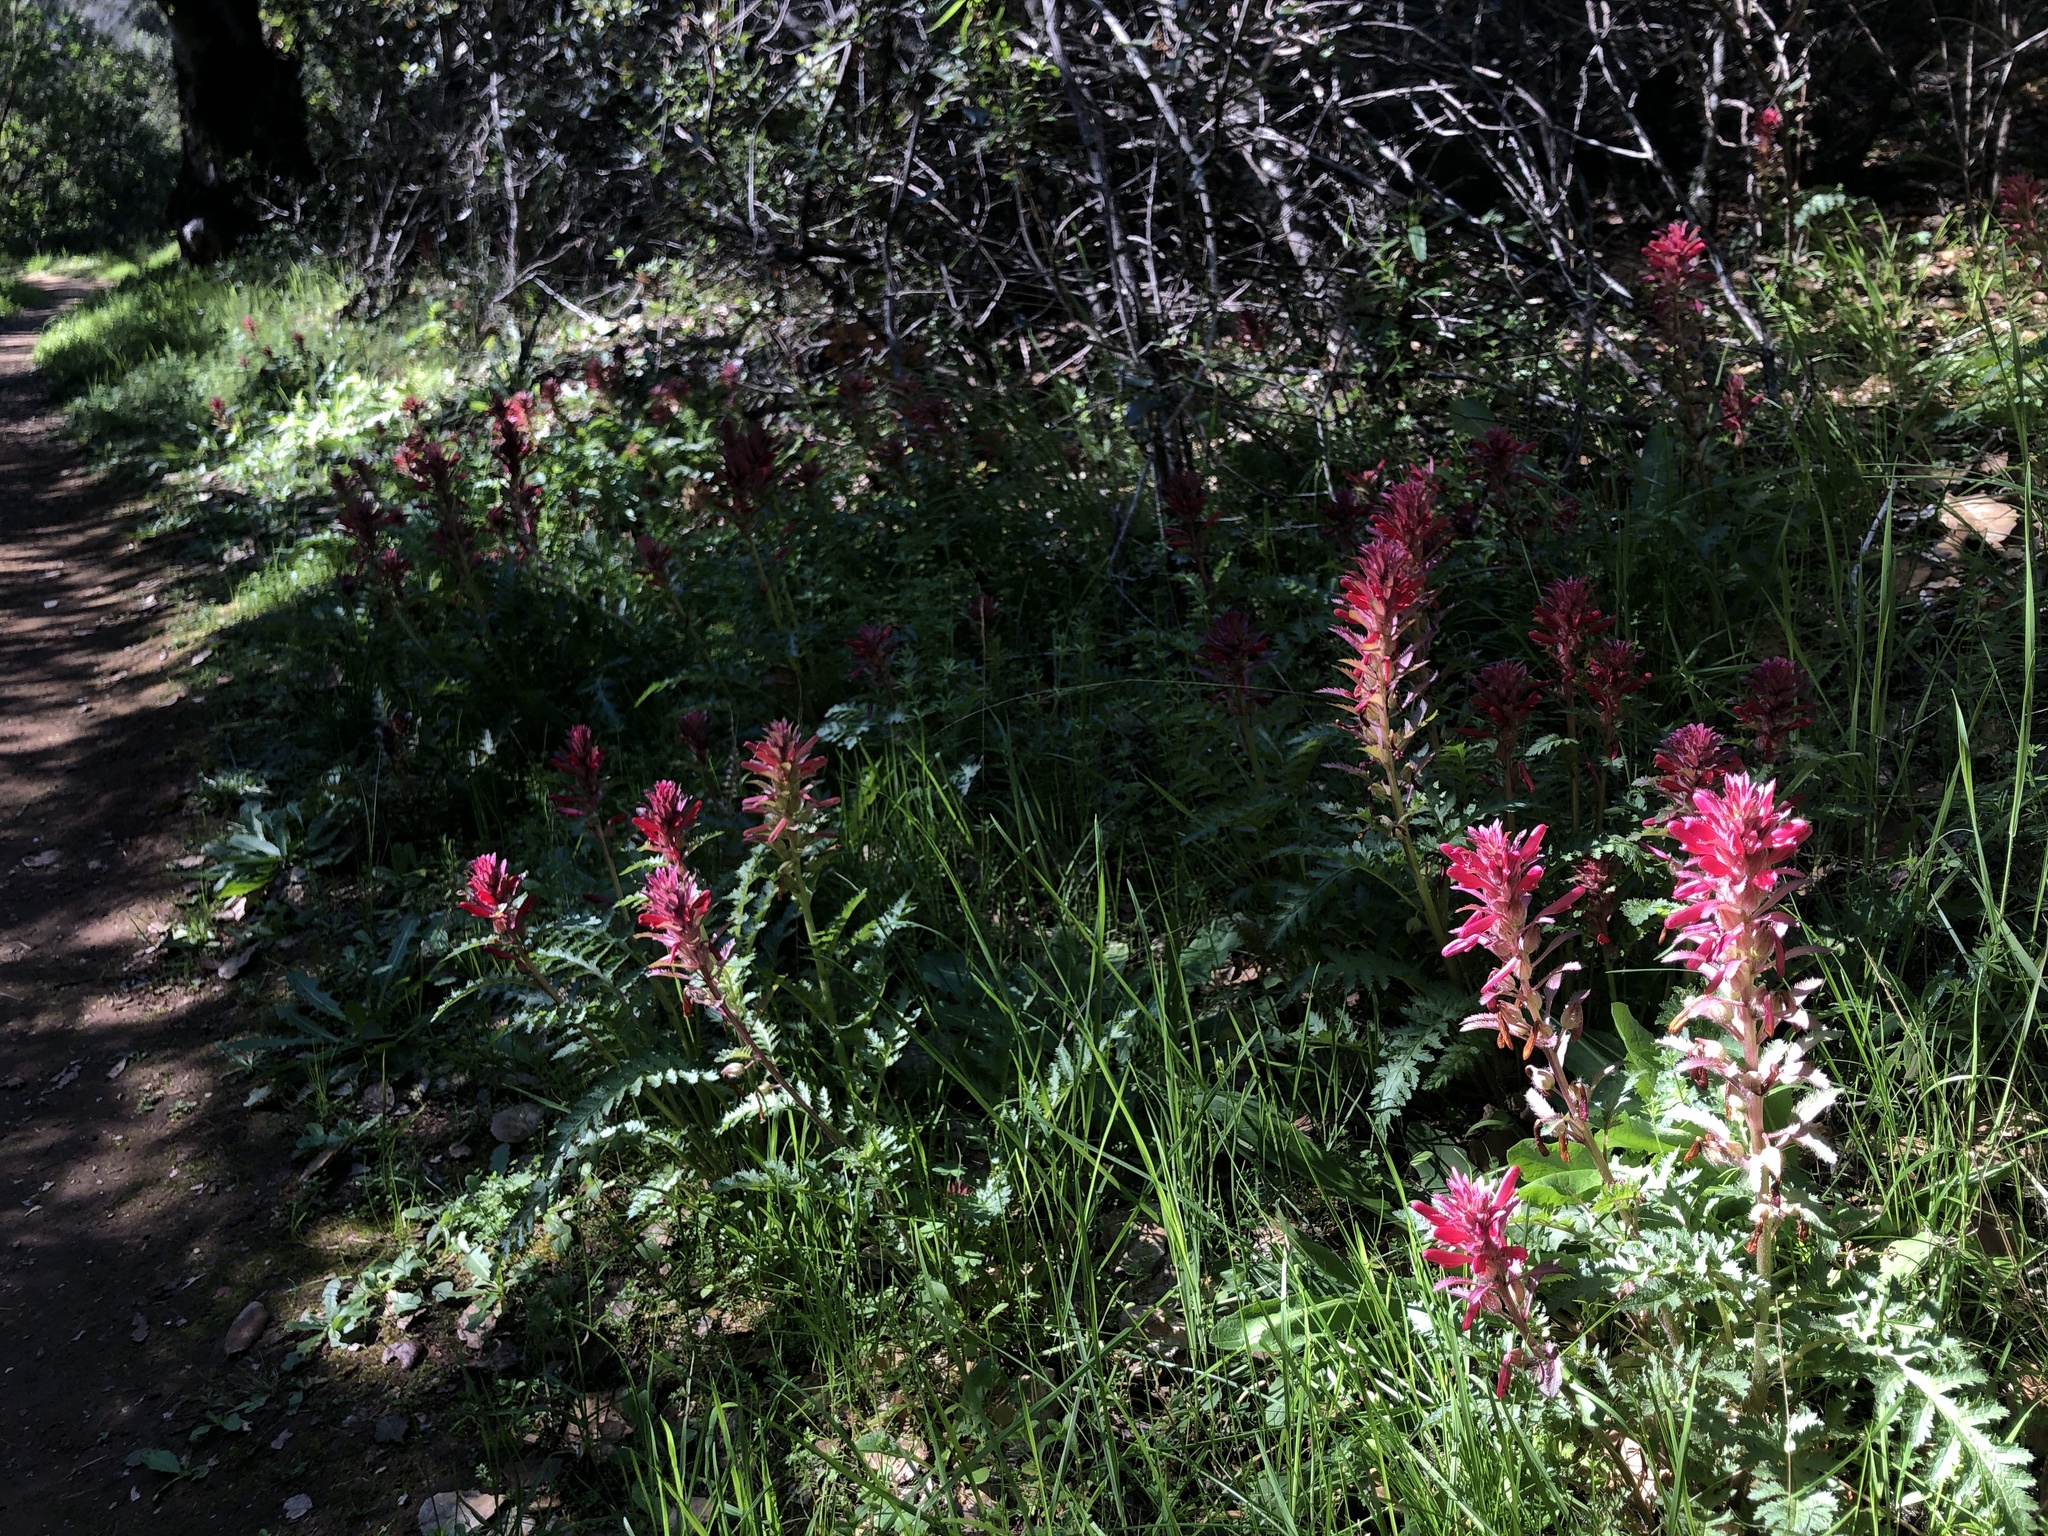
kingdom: Plantae
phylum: Tracheophyta
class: Magnoliopsida
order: Lamiales
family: Orobanchaceae
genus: Pedicularis
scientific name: Pedicularis densiflora
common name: Indian warrior
